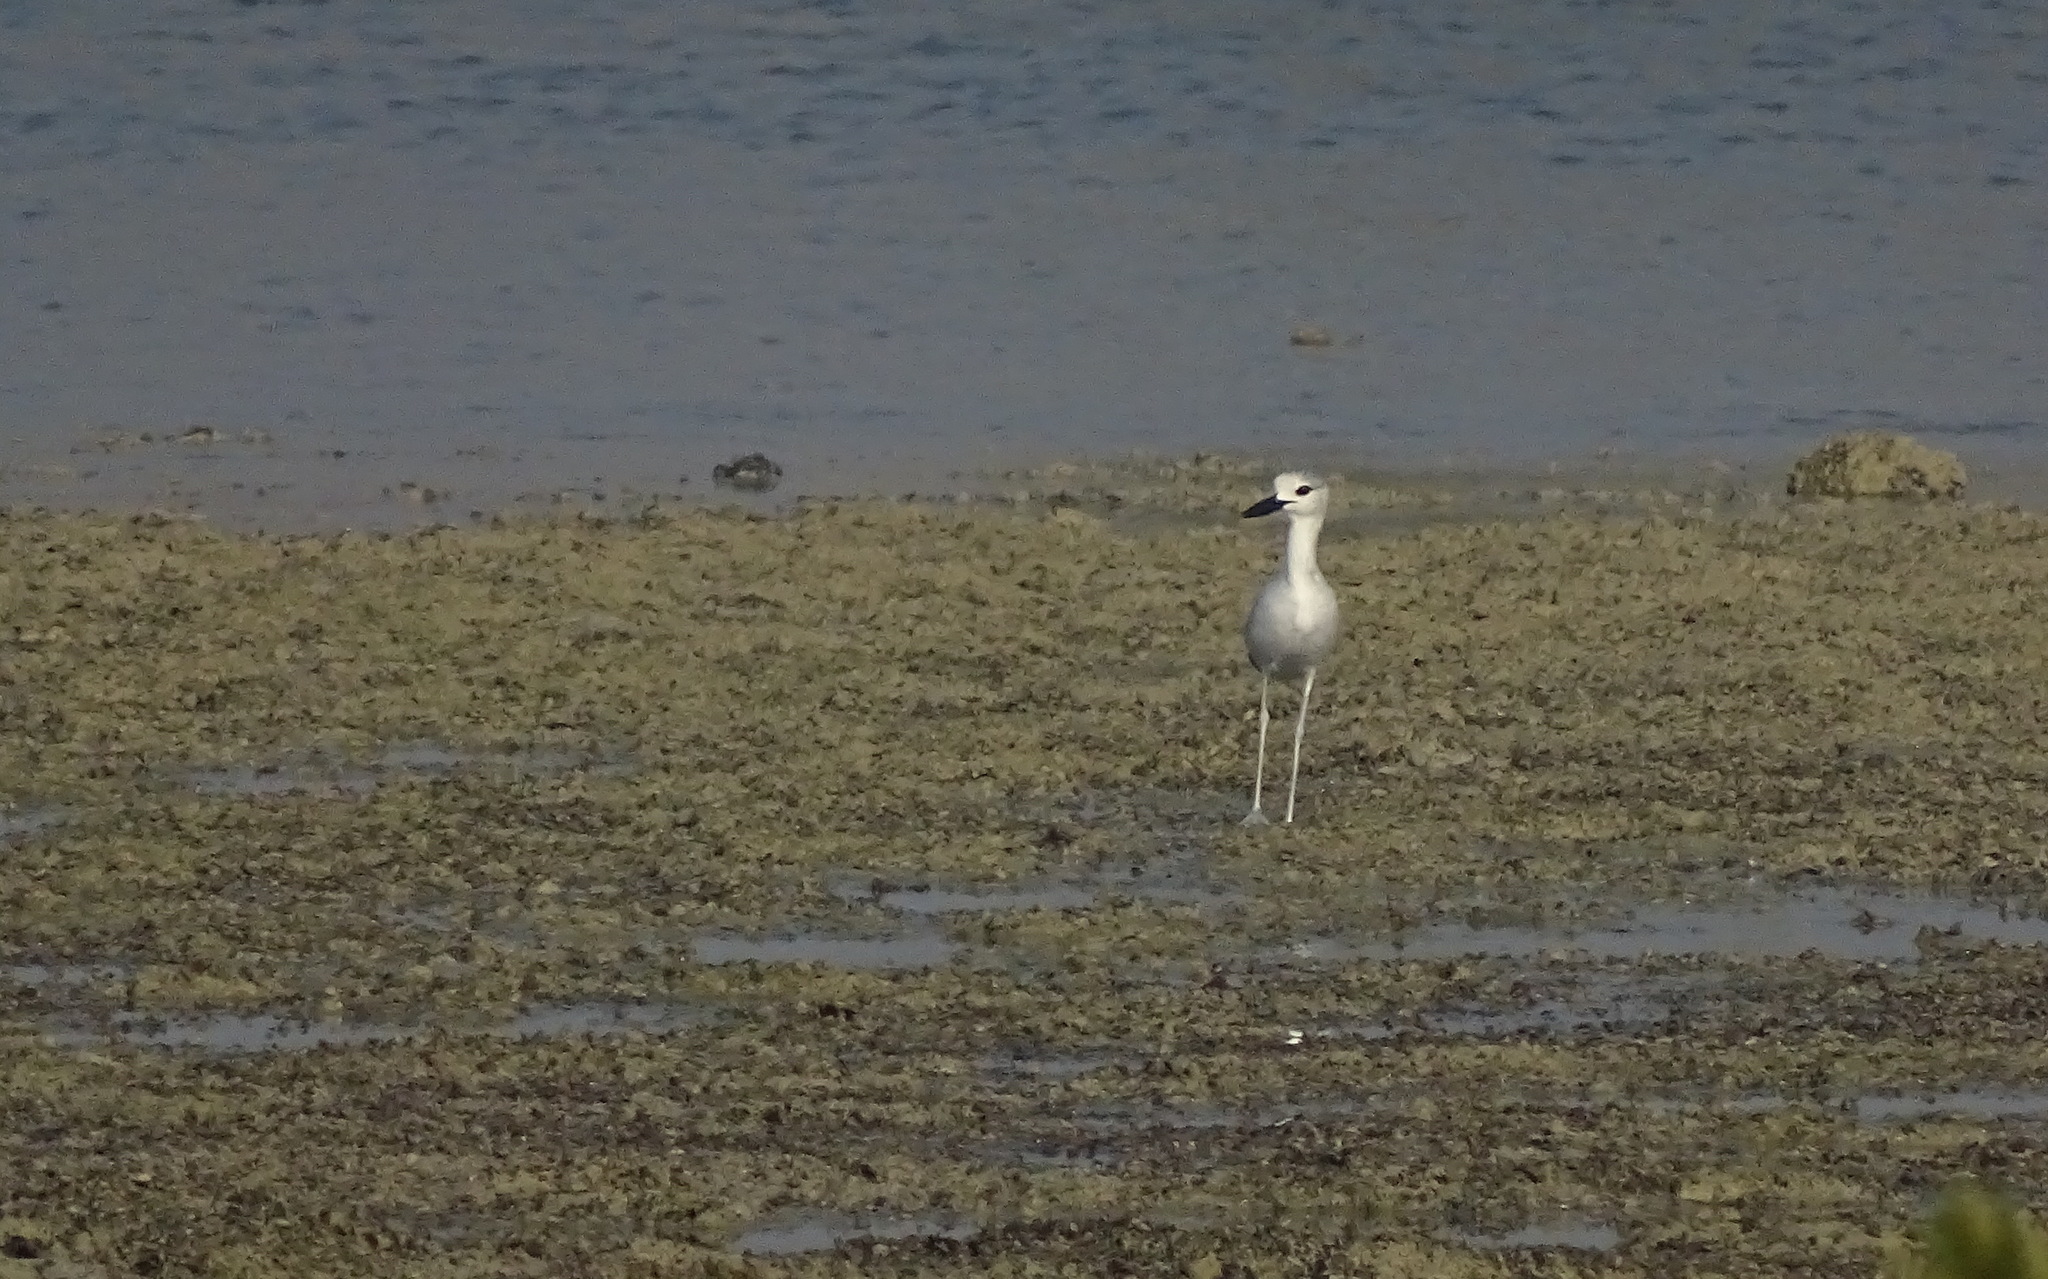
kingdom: Animalia
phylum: Chordata
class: Aves
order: Charadriiformes
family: Dromadidae
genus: Dromas
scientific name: Dromas ardeola
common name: Crab-plover
